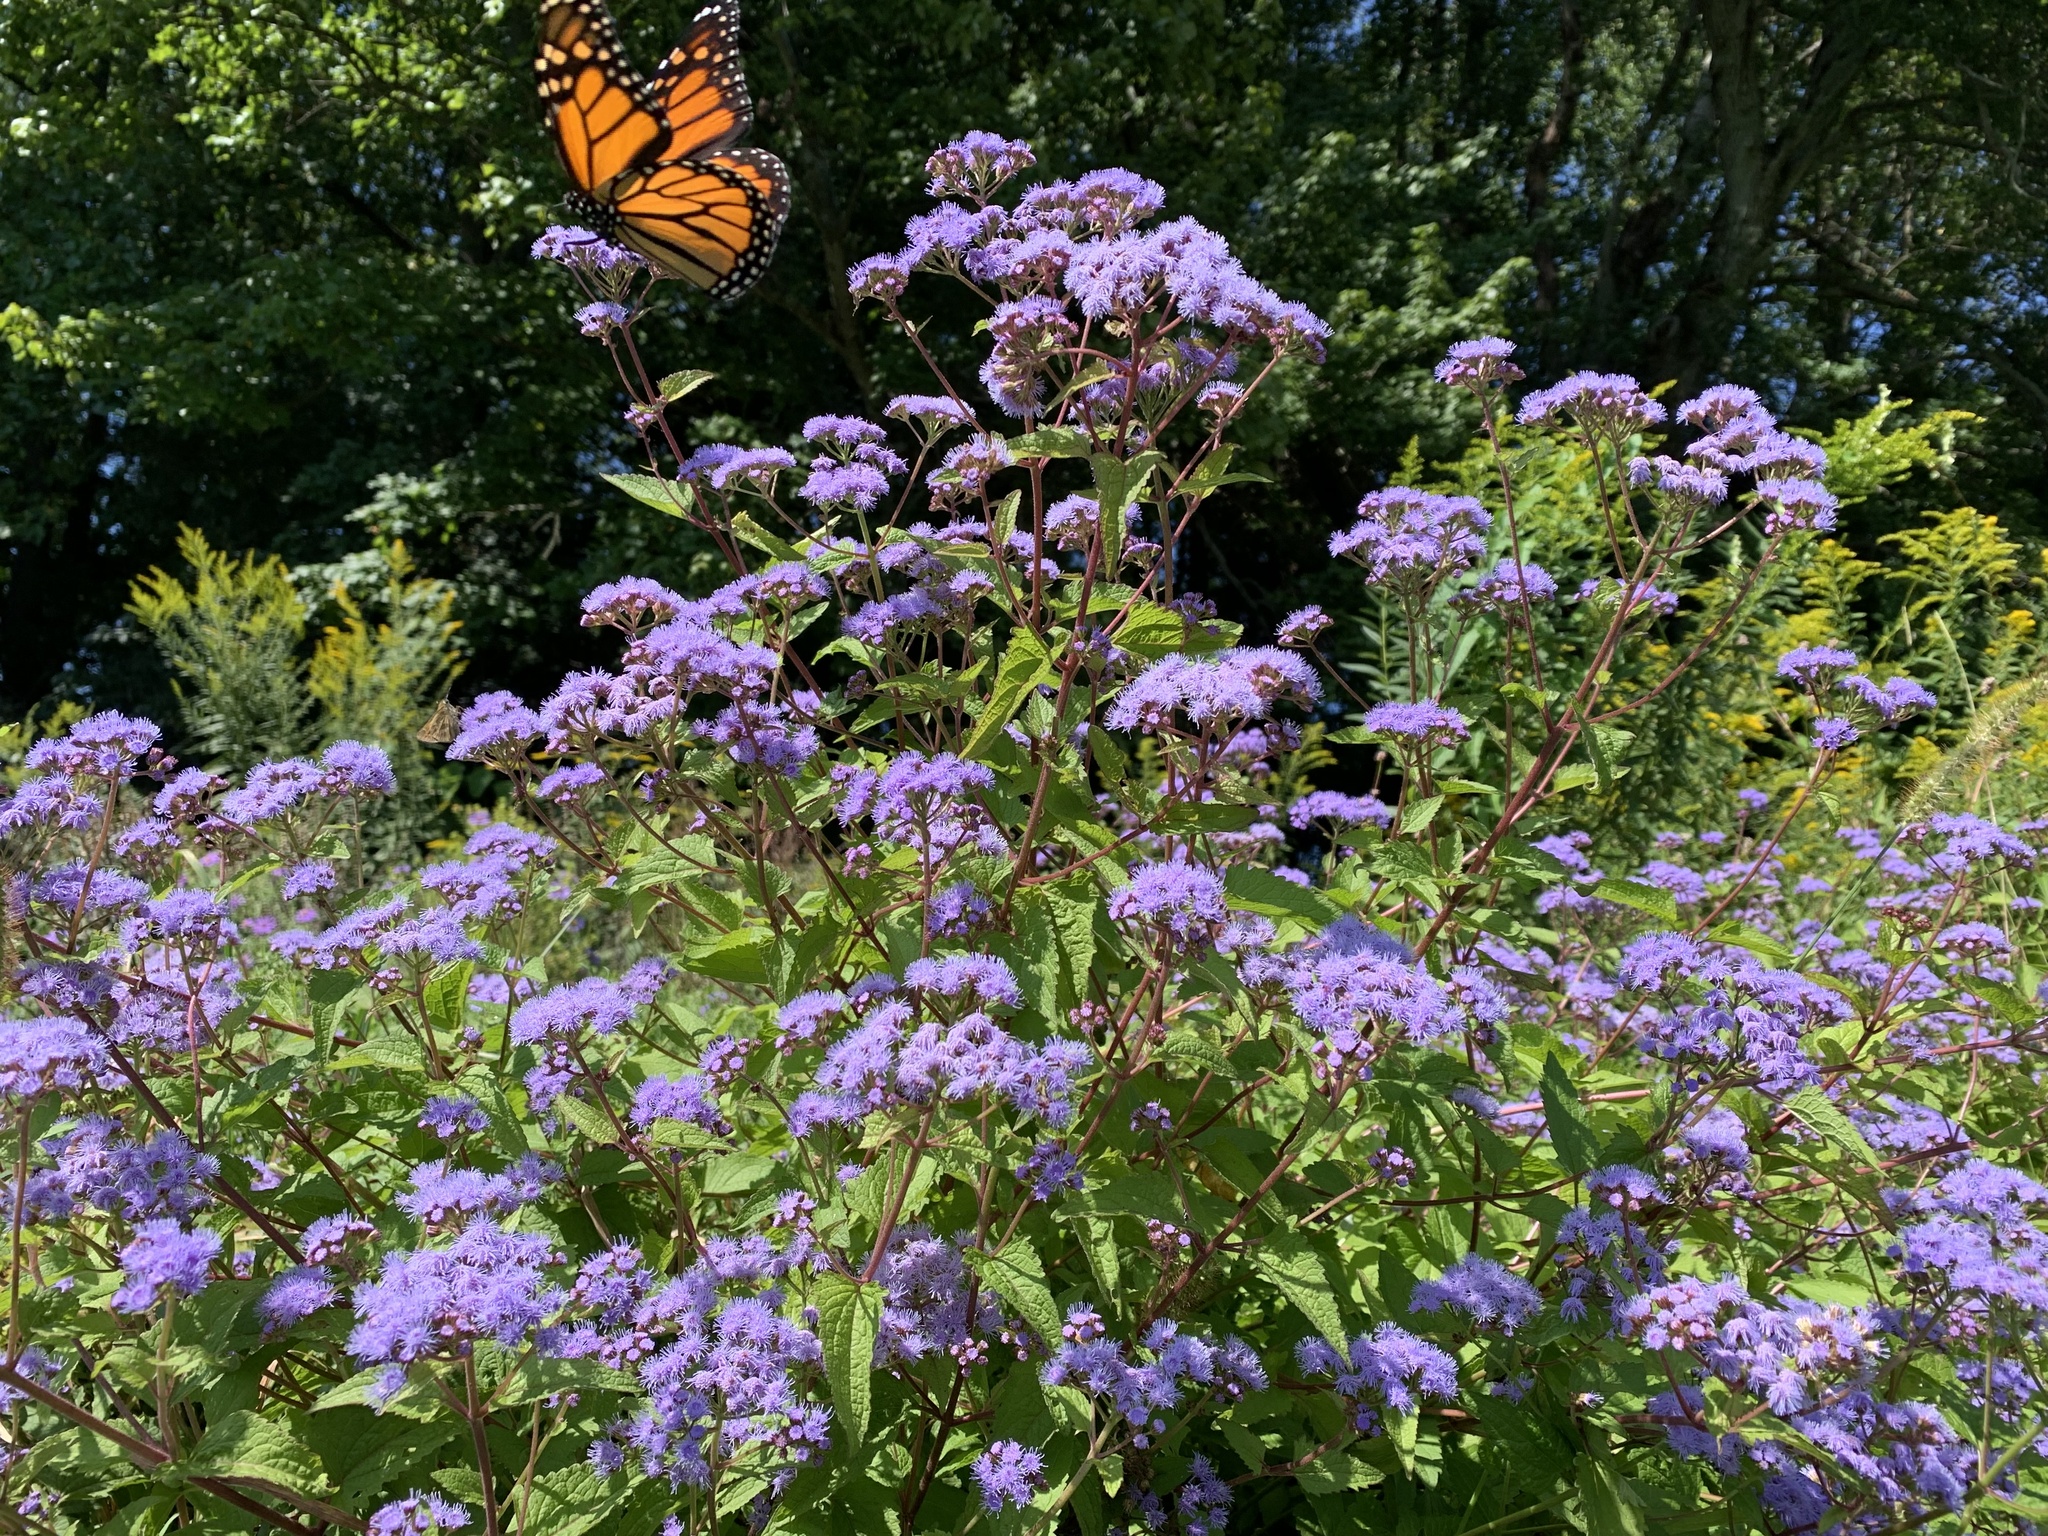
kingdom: Animalia
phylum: Arthropoda
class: Insecta
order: Lepidoptera
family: Nymphalidae
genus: Danaus
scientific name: Danaus plexippus
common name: Monarch
